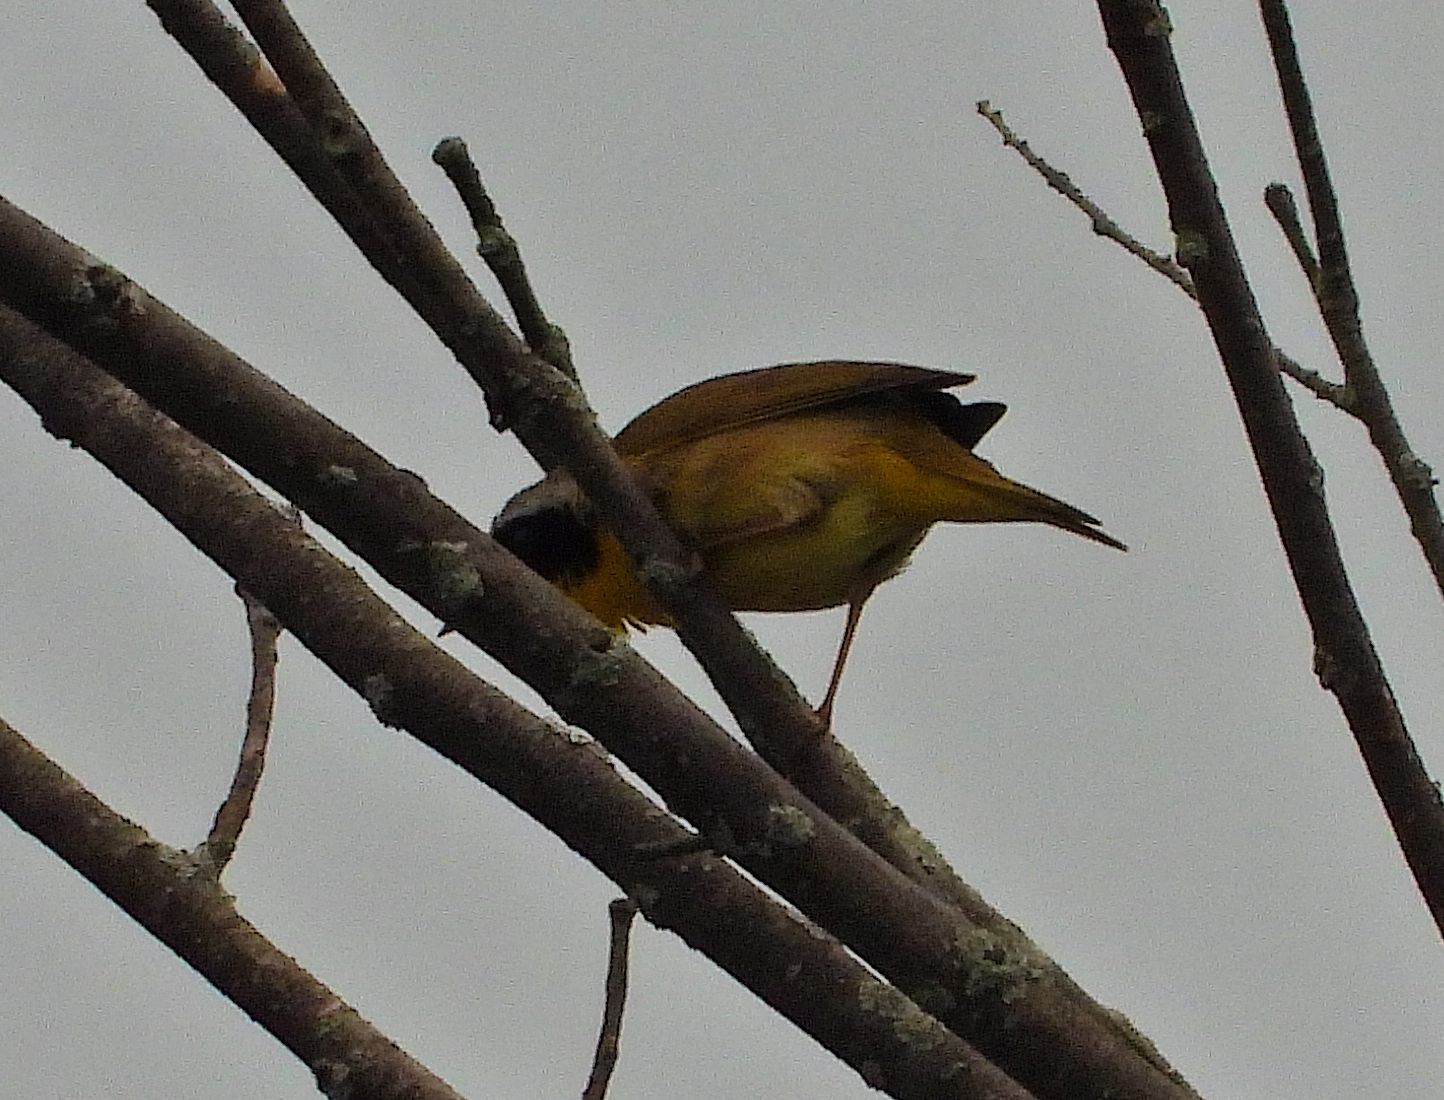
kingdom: Animalia
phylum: Chordata
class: Aves
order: Passeriformes
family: Parulidae
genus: Geothlypis
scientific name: Geothlypis trichas
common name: Common yellowthroat
